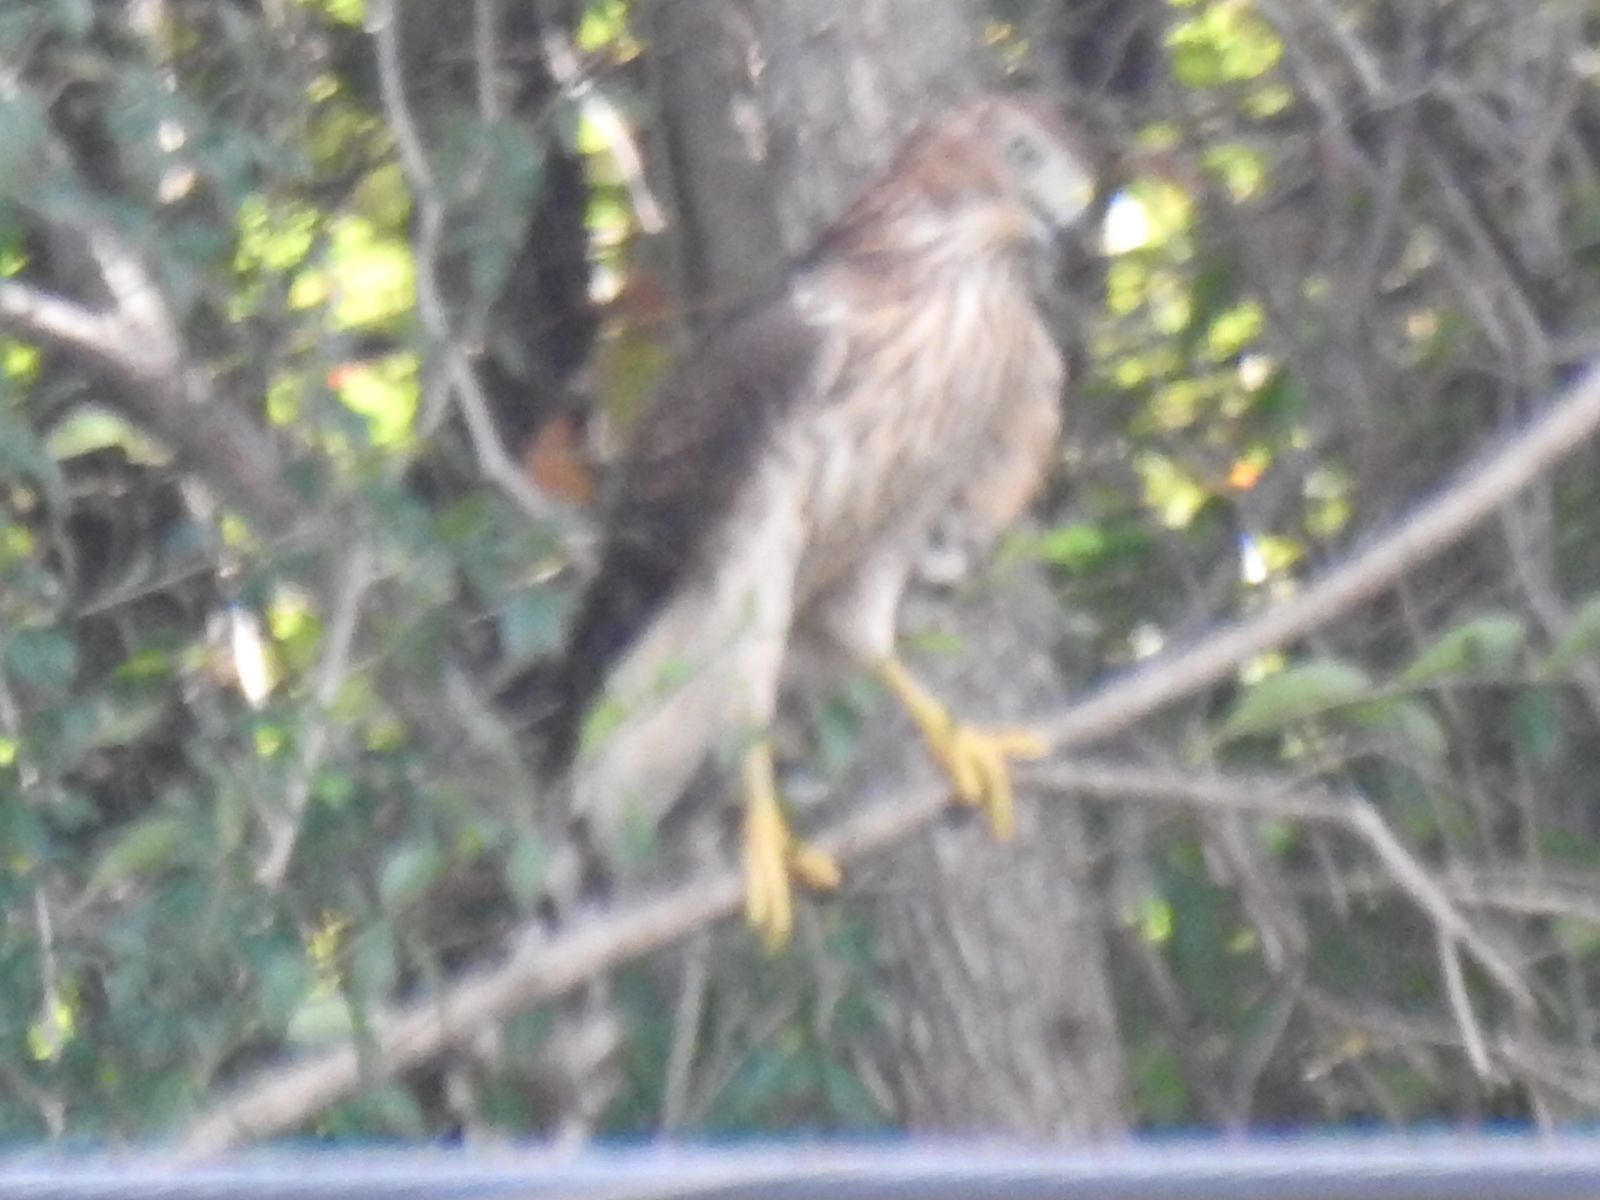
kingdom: Animalia
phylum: Chordata
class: Aves
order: Accipitriformes
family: Accipitridae
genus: Accipiter
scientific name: Accipiter cooperii
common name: Cooper's hawk
